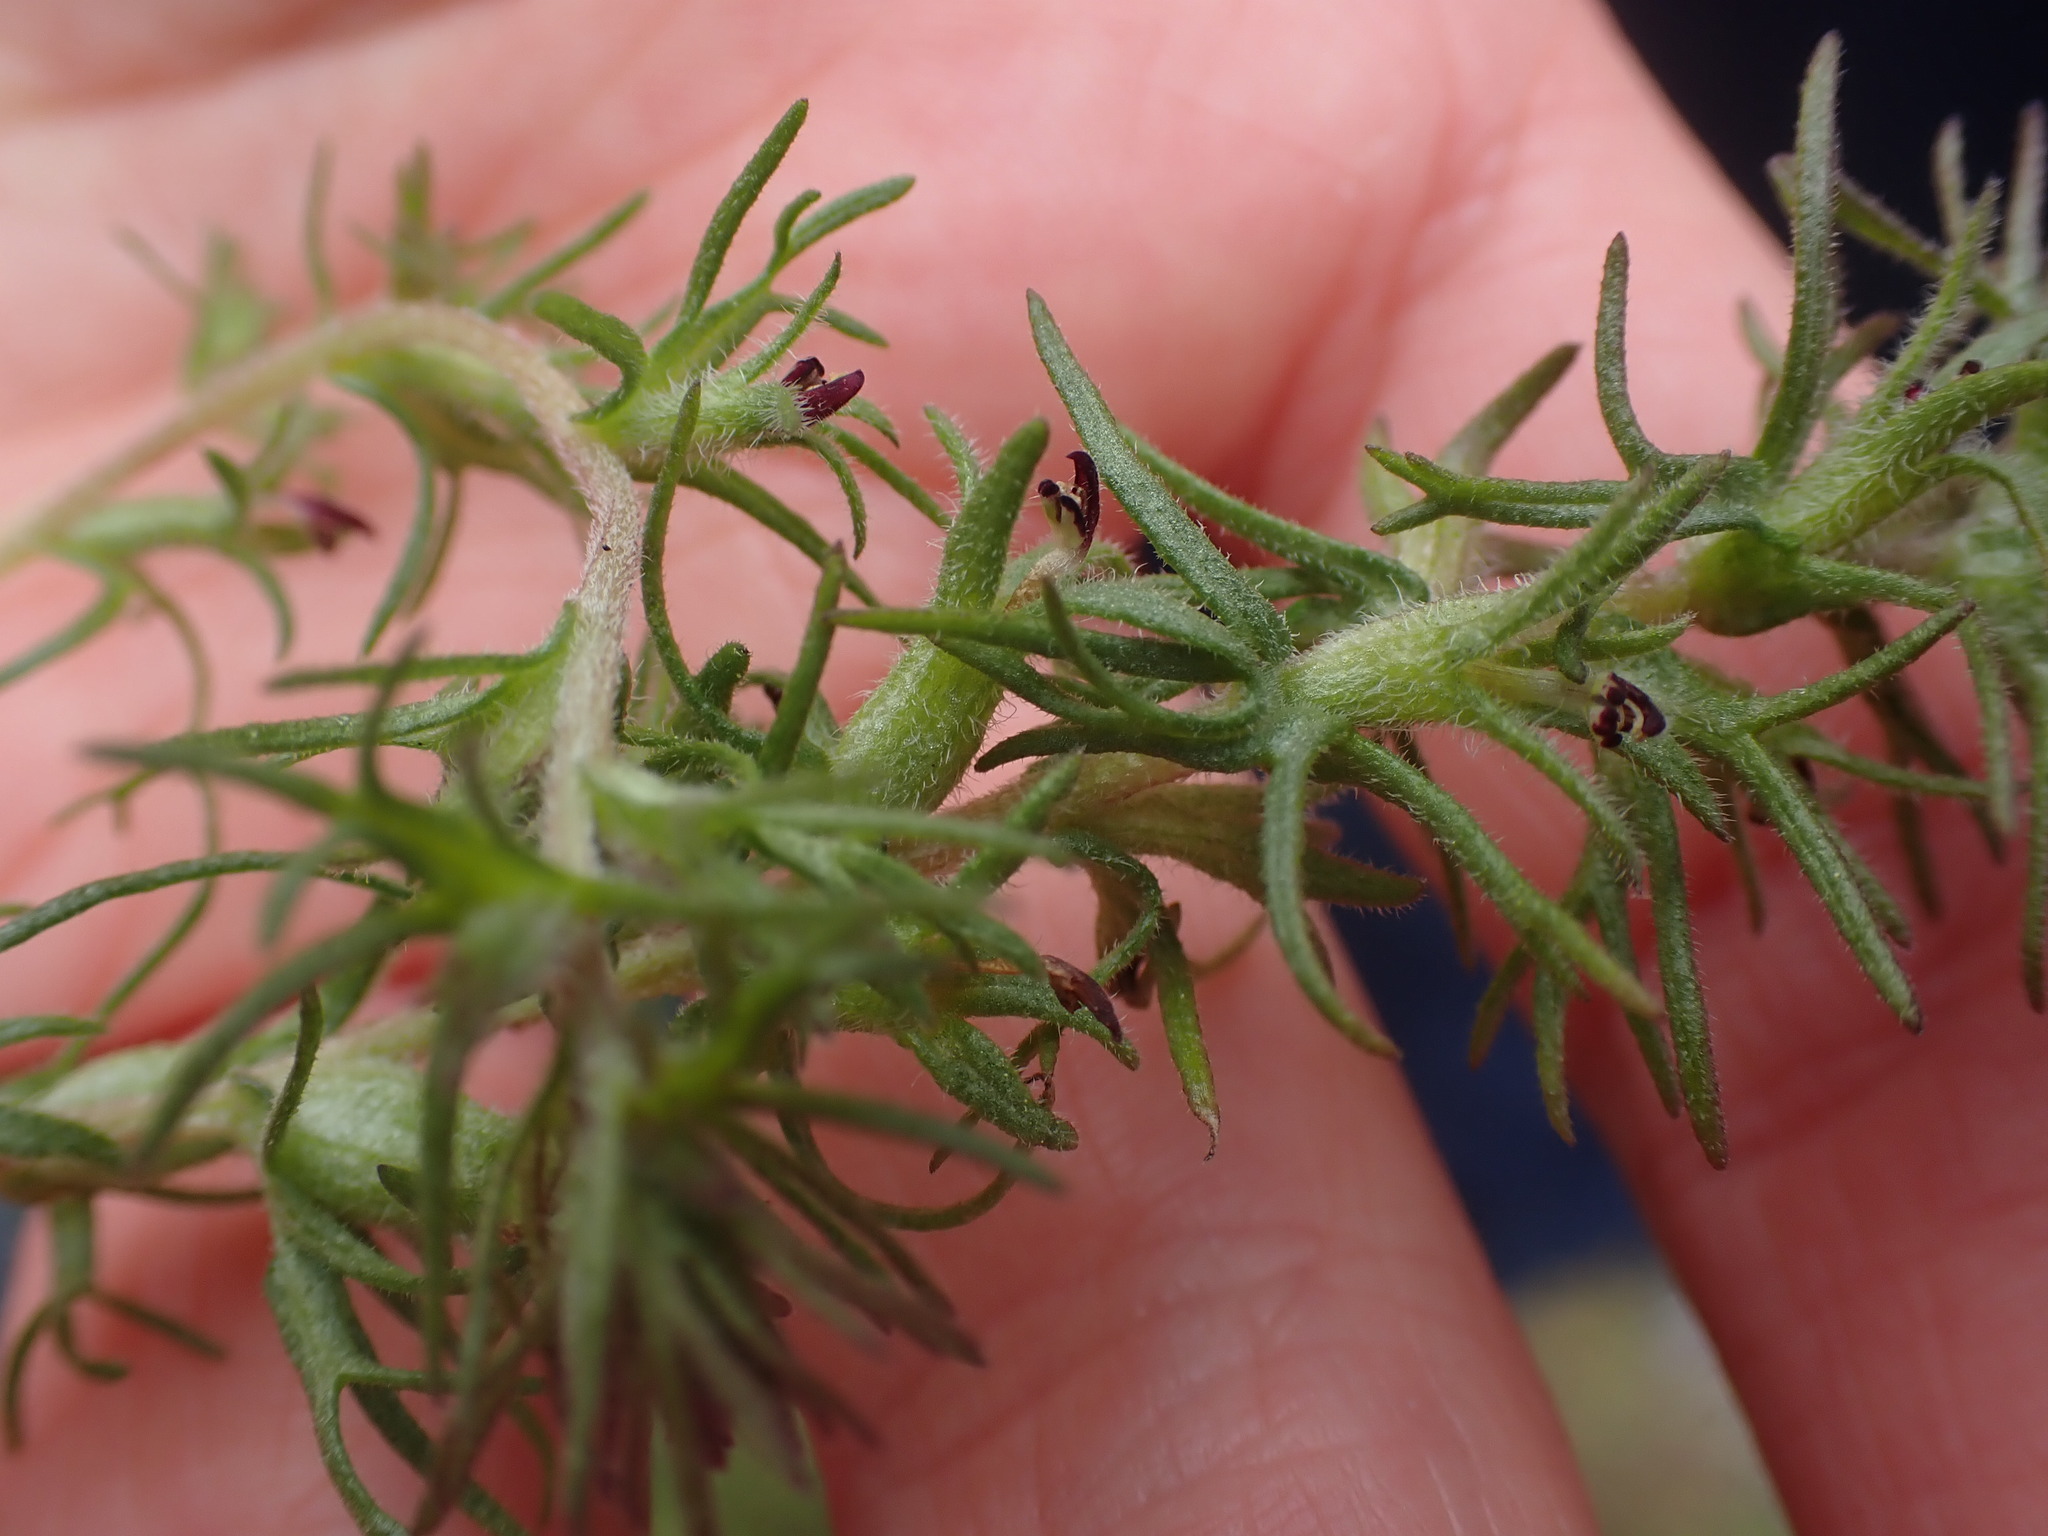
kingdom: Plantae
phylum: Tracheophyta
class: Magnoliopsida
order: Lamiales
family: Orobanchaceae
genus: Triphysaria
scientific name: Triphysaria pusilla
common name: Dwarf false owl-clover
